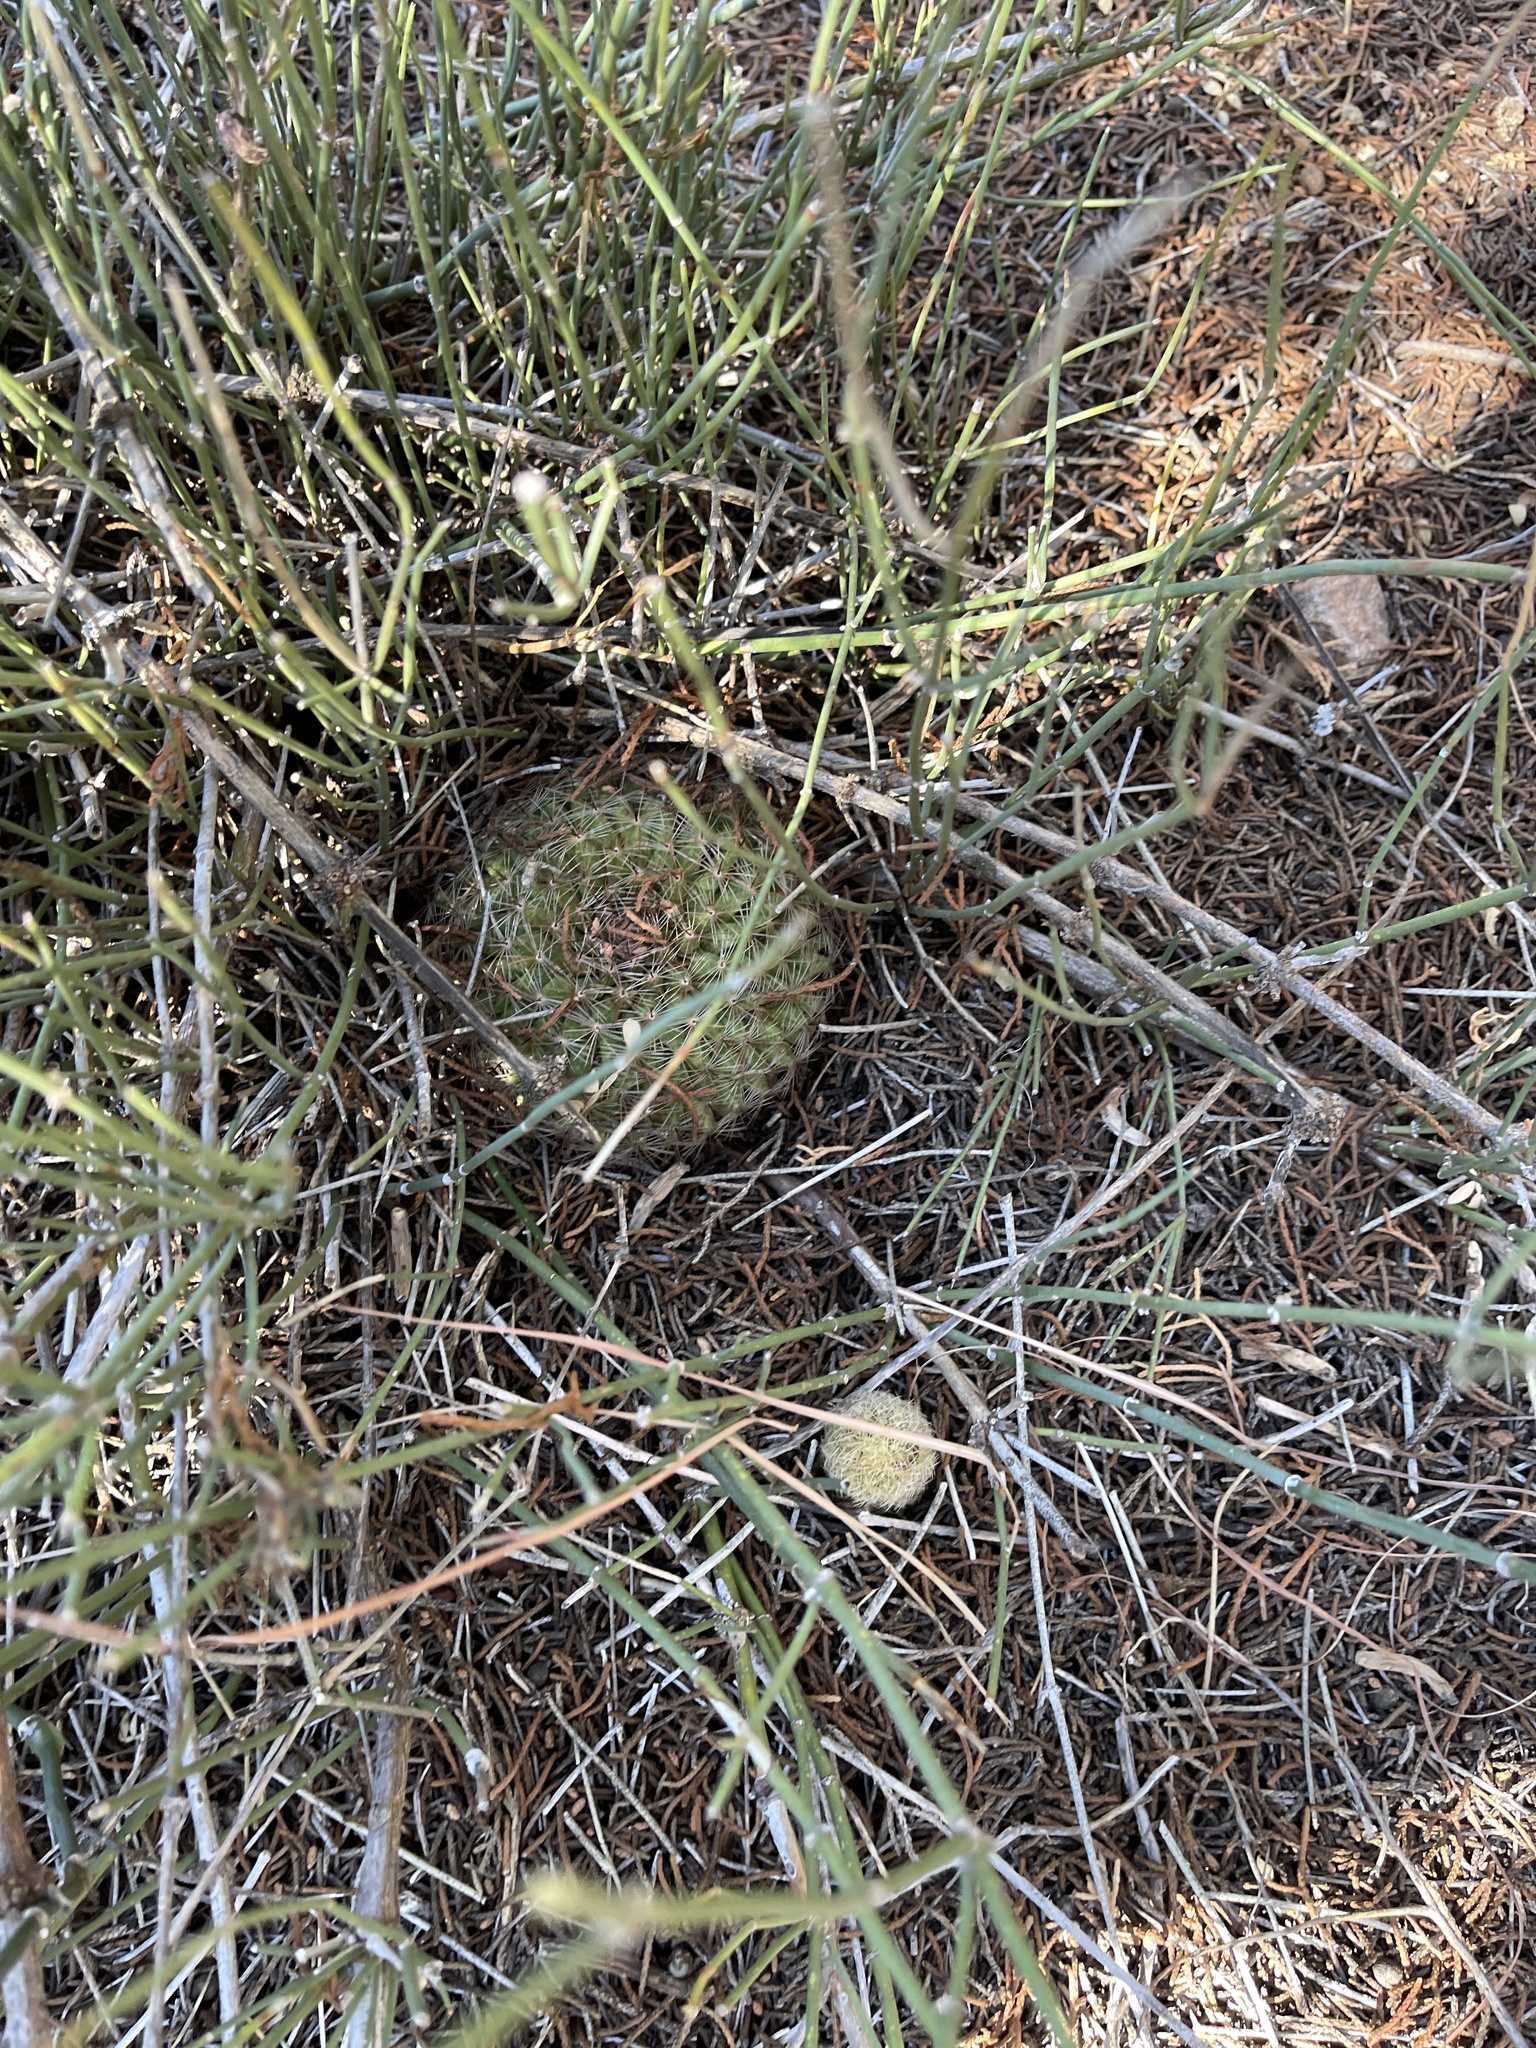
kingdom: Plantae
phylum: Tracheophyta
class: Magnoliopsida
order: Caryophyllales
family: Cactaceae
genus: Mammillaria
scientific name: Mammillaria heyderi
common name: Little nipple cactus
